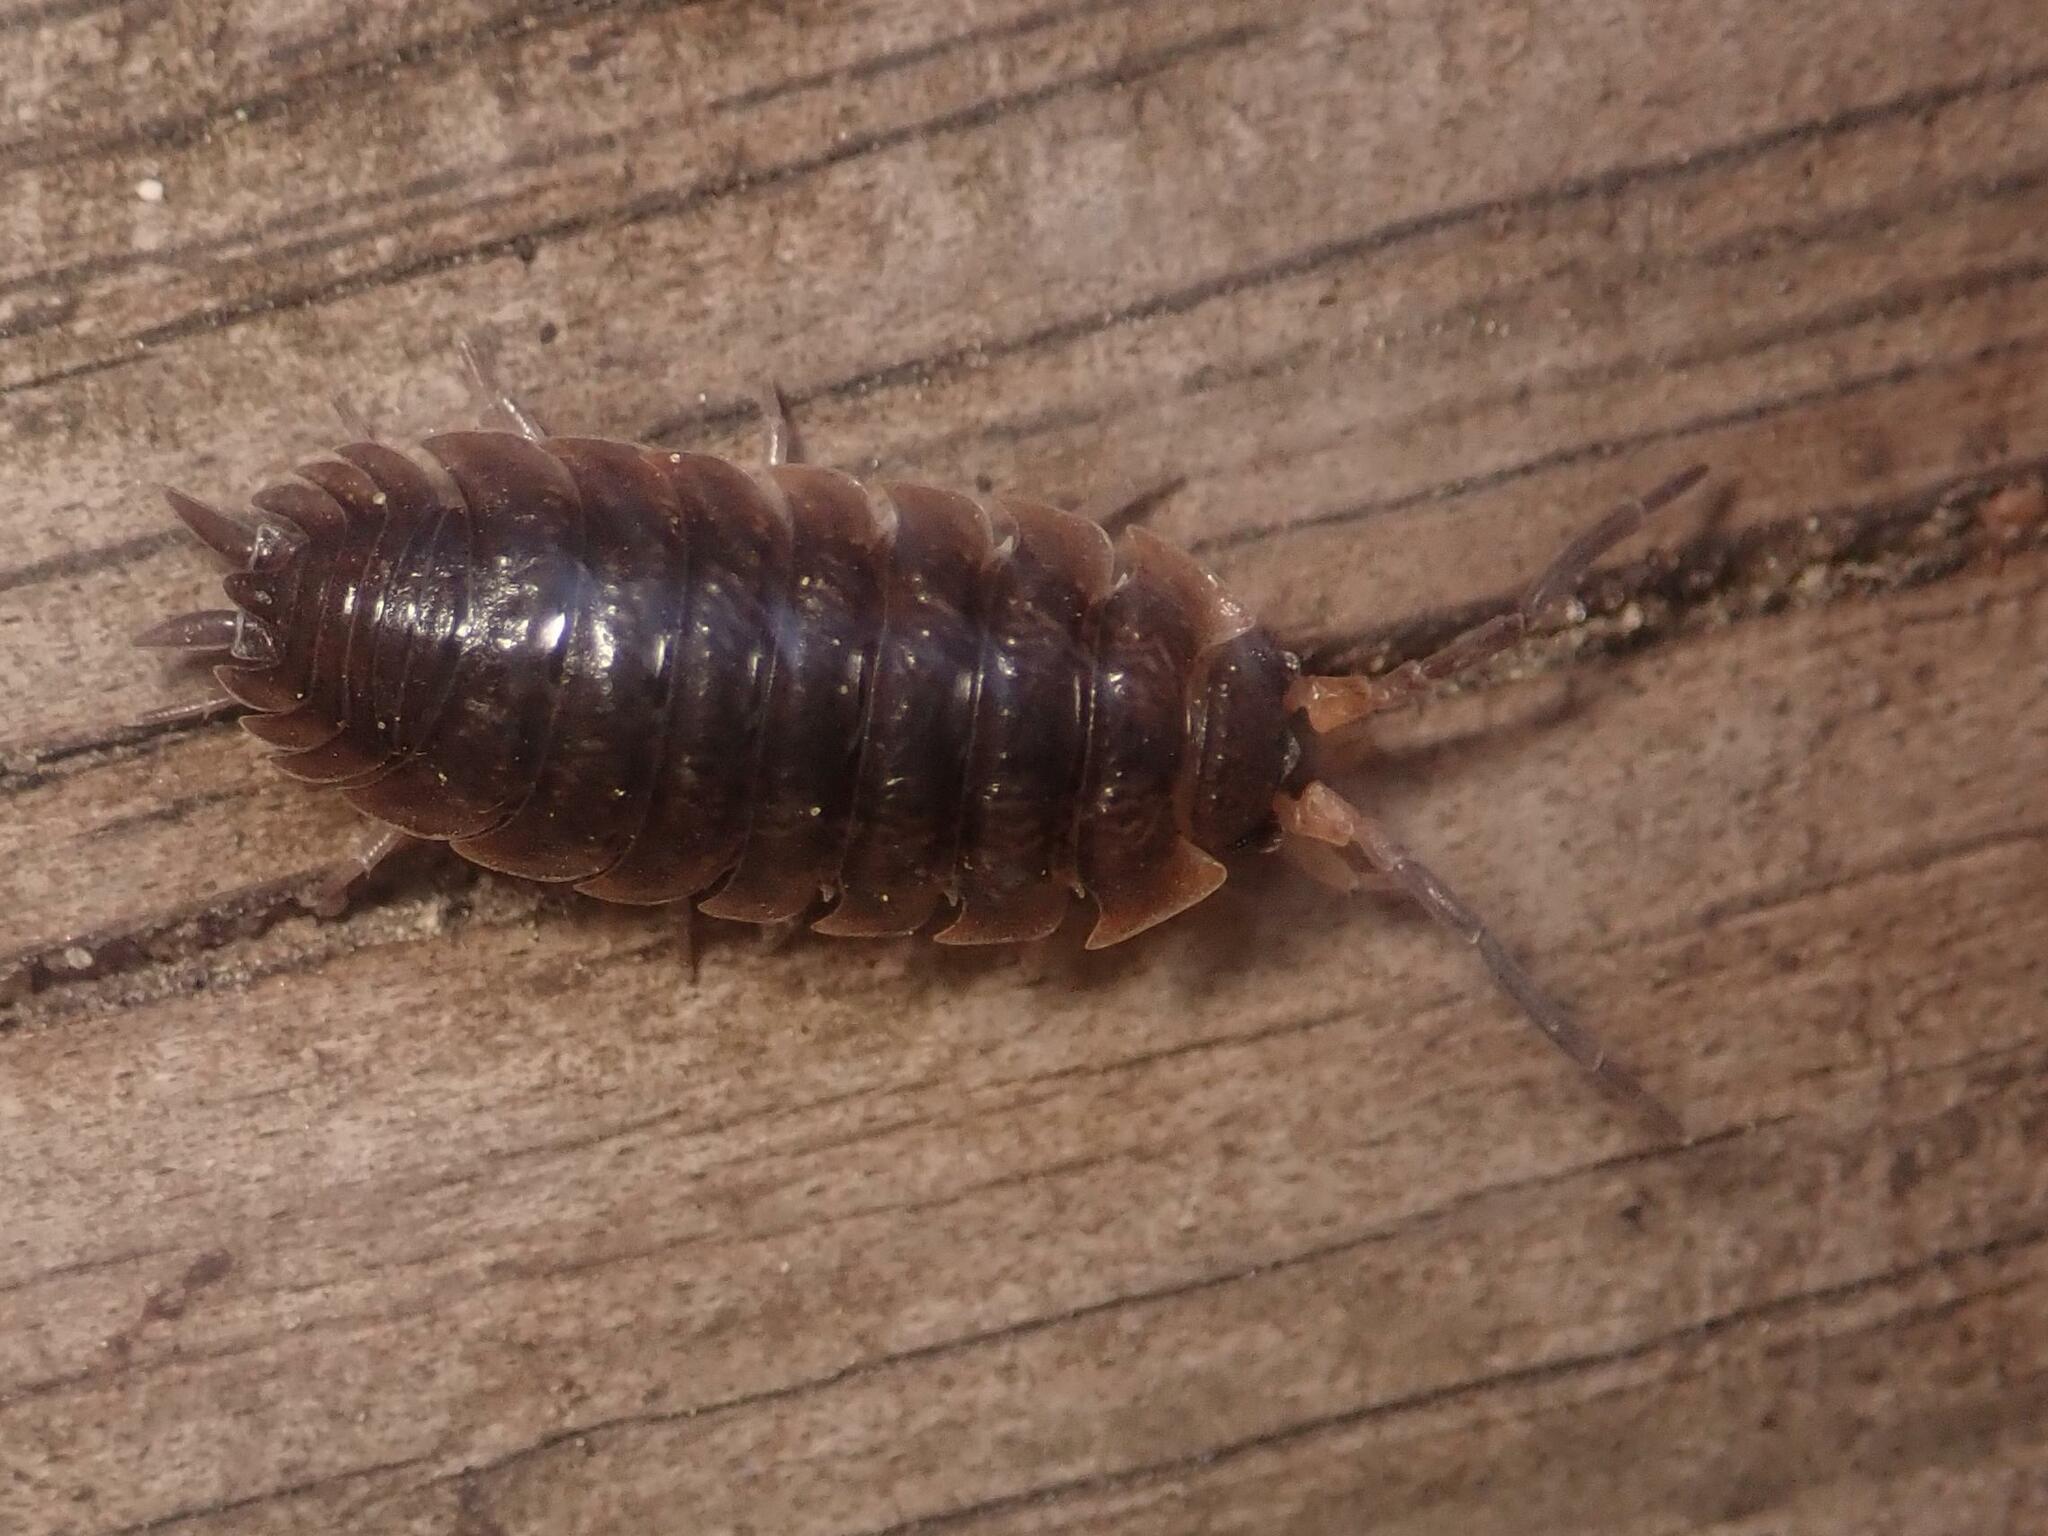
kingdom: Animalia
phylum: Arthropoda
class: Malacostraca
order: Isopoda
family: Porcellionidae
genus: Porcellio
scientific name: Porcellio scaber
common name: Common rough woodlouse
